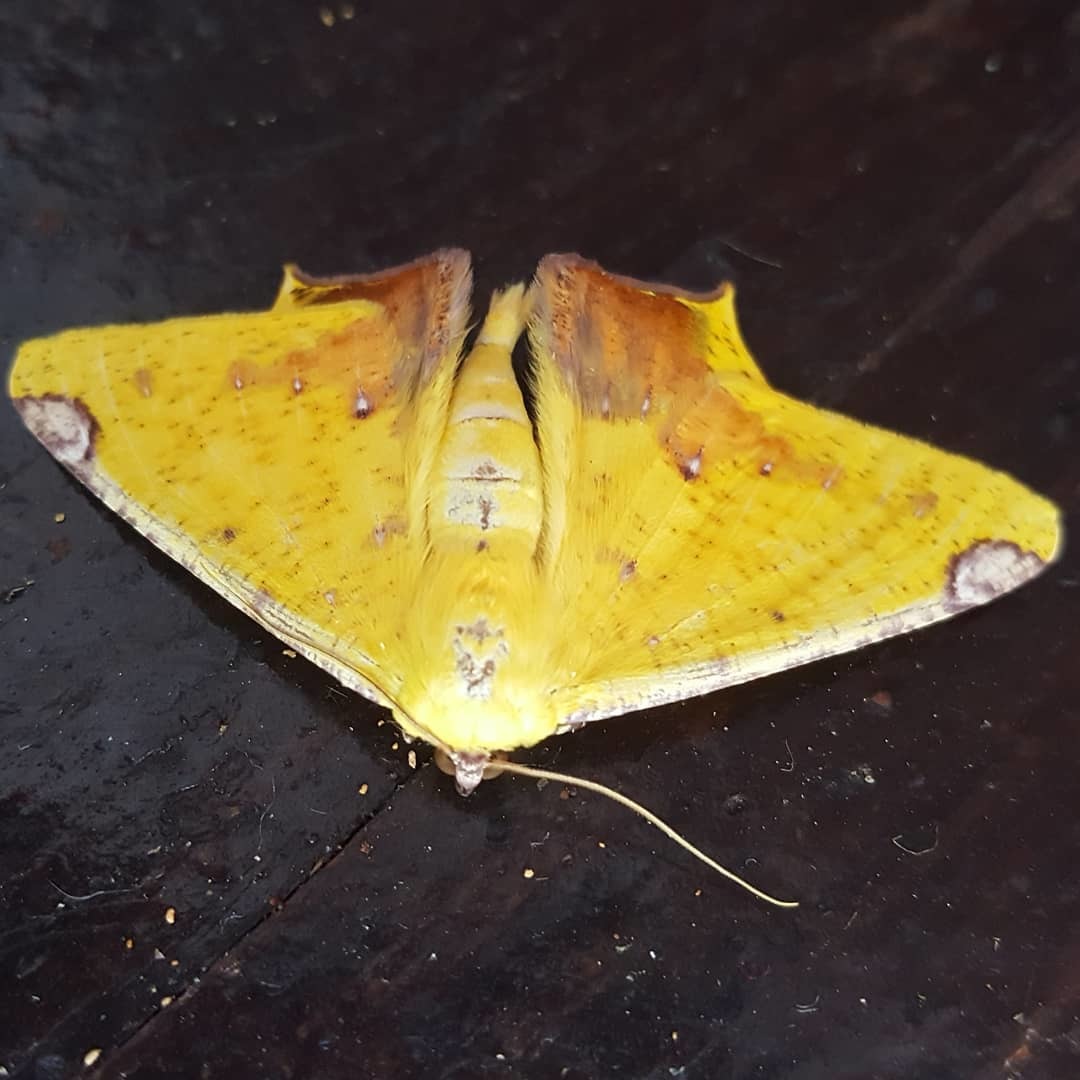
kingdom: Animalia
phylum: Arthropoda
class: Insecta
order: Lepidoptera
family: Geometridae
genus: Nepheloleuca
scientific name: Nepheloleuca politia
